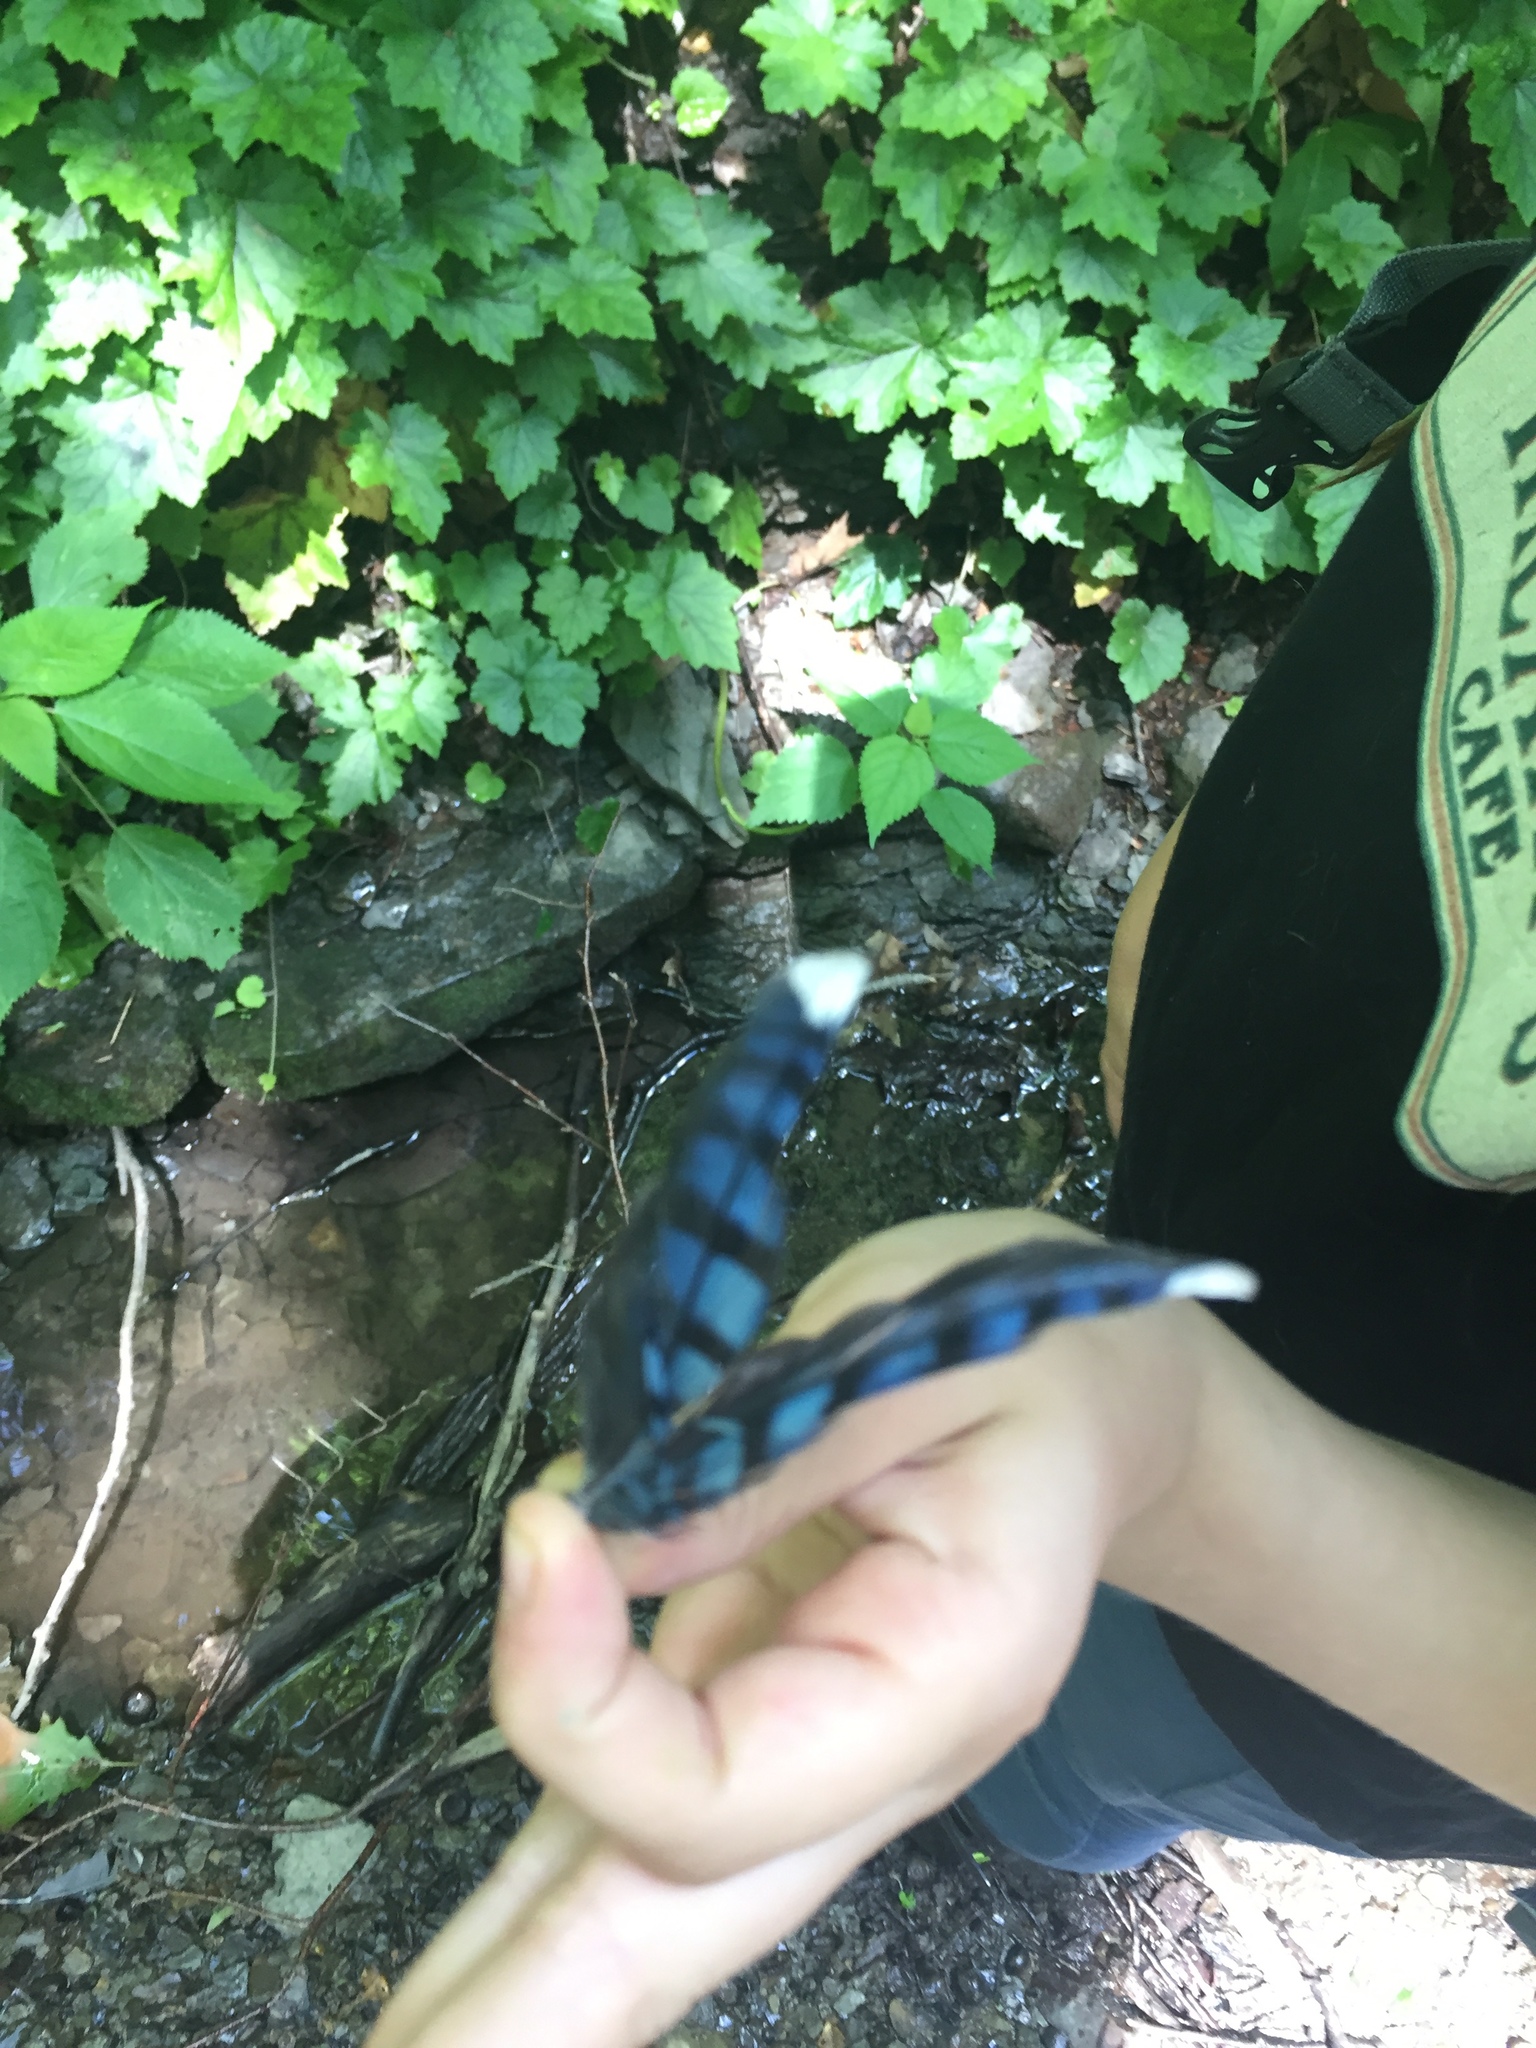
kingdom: Animalia
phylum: Chordata
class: Aves
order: Passeriformes
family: Corvidae
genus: Cyanocitta
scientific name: Cyanocitta cristata
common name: Blue jay
